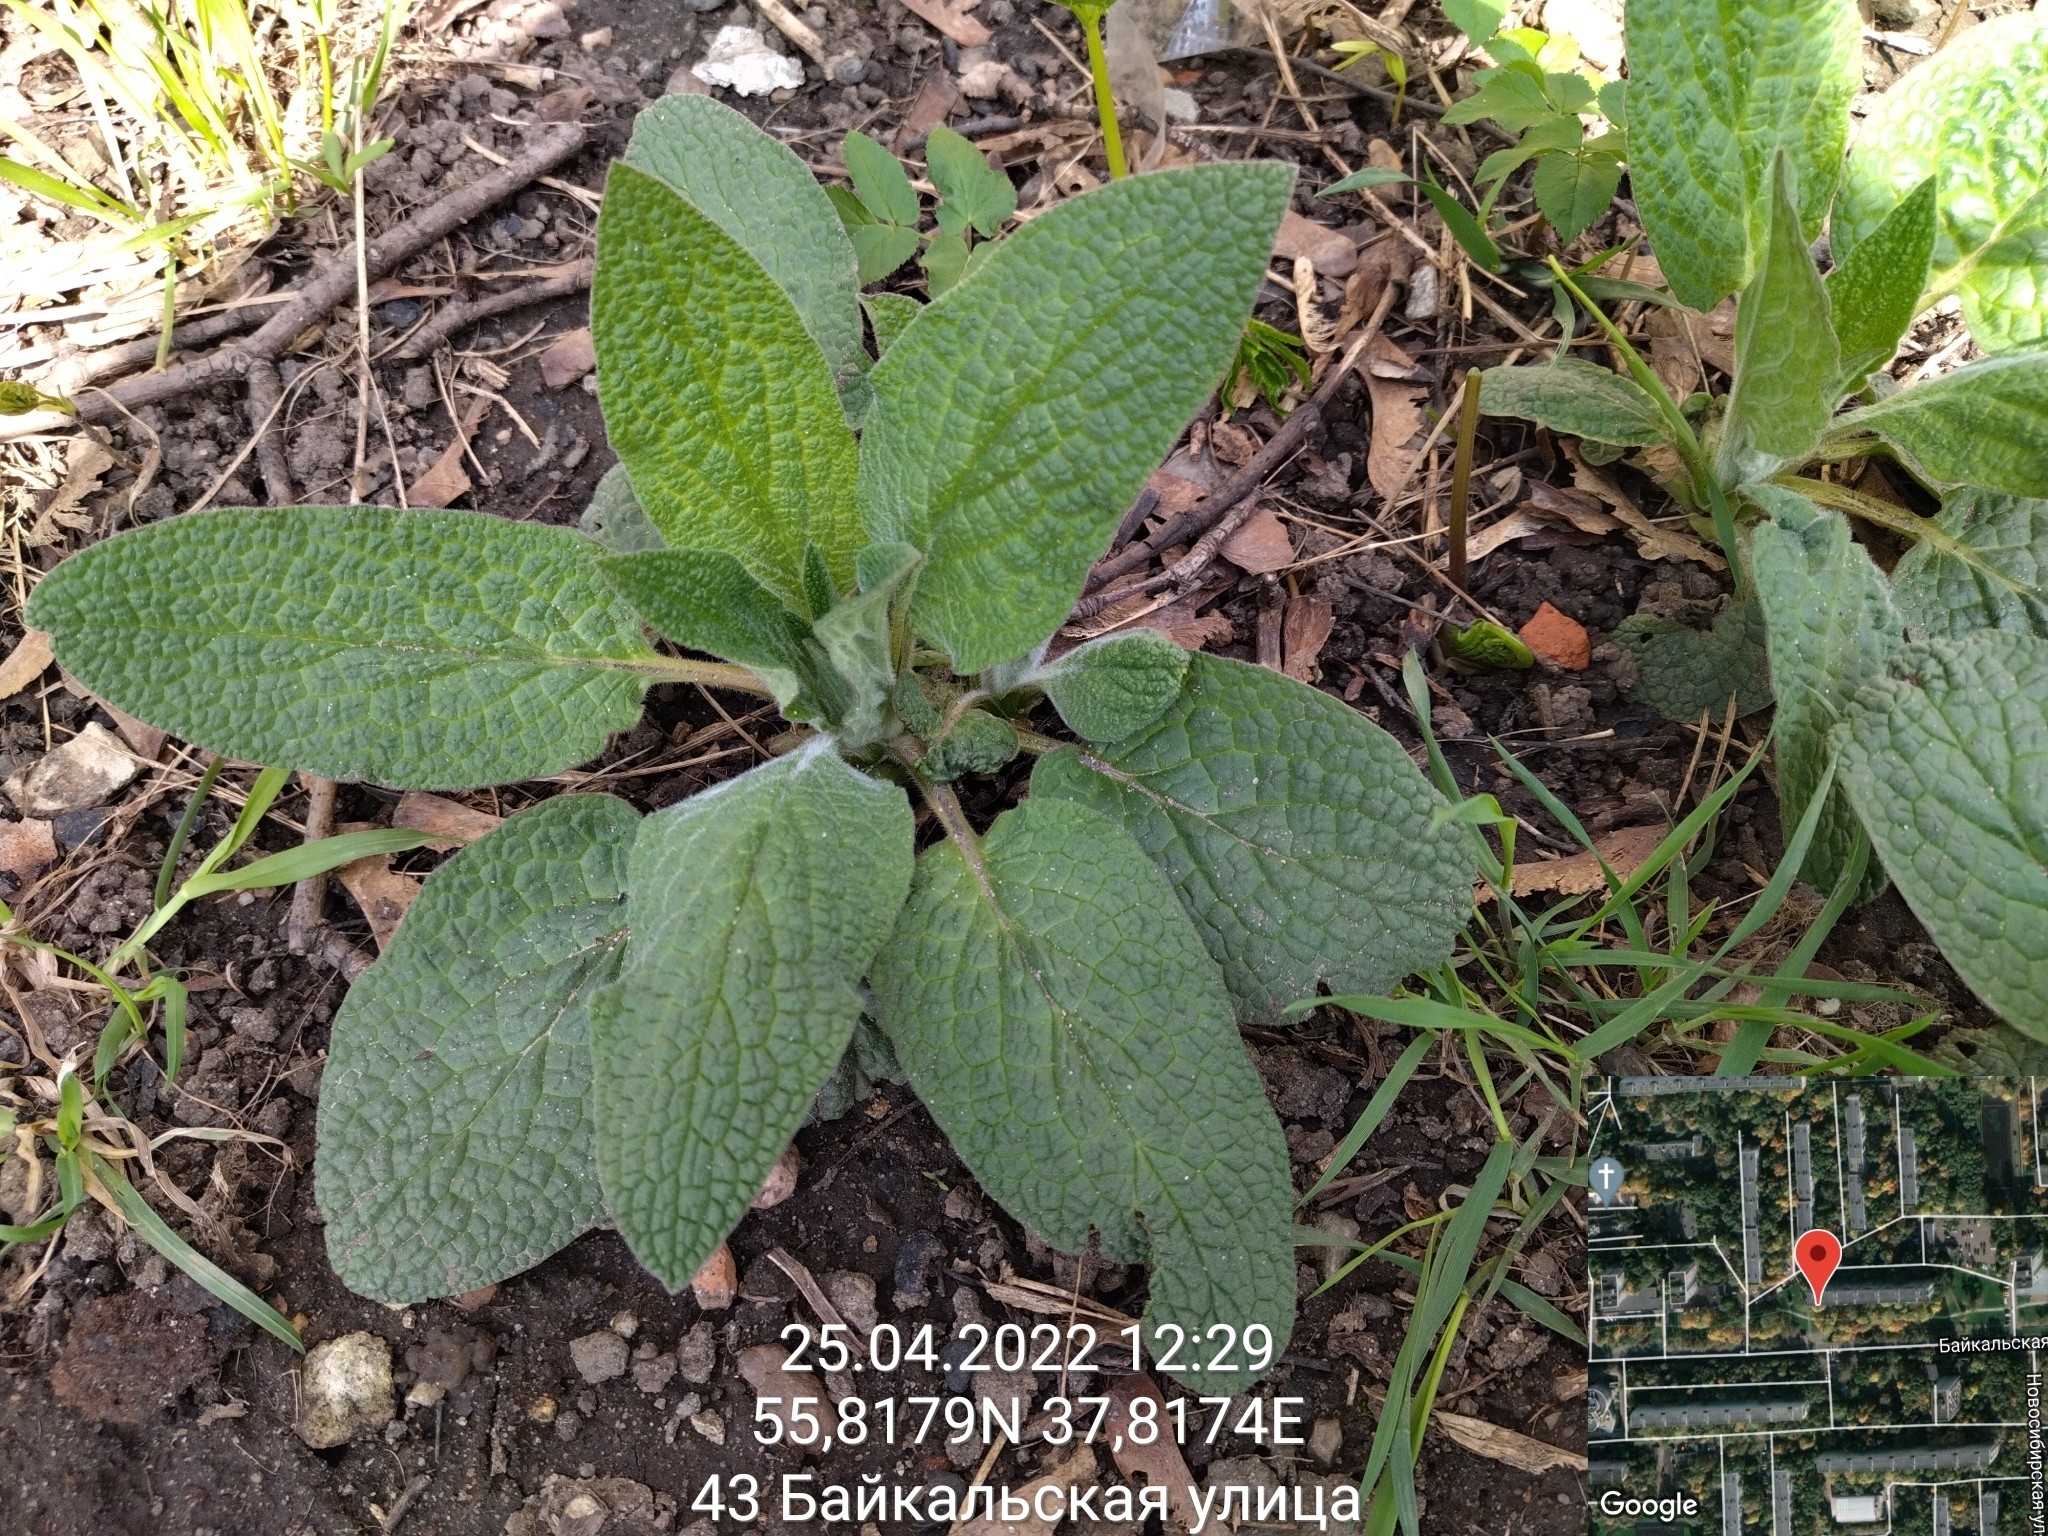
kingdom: Plantae
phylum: Tracheophyta
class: Magnoliopsida
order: Boraginales
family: Boraginaceae
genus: Symphytum
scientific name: Symphytum
